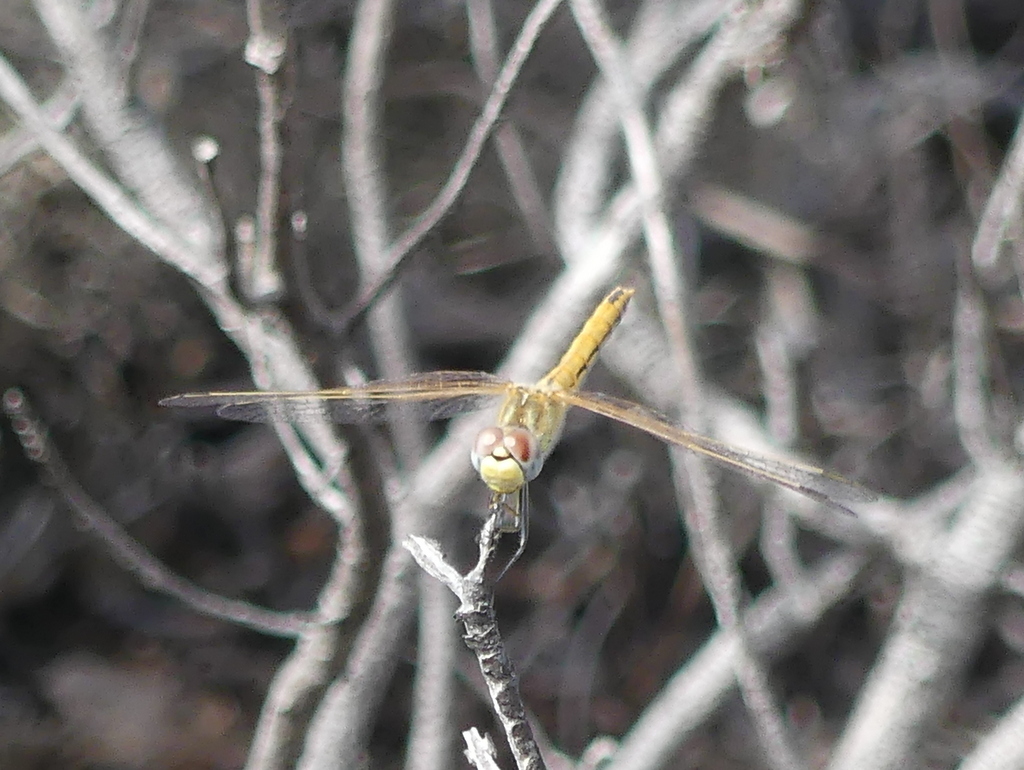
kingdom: Animalia
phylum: Arthropoda
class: Insecta
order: Odonata
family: Libellulidae
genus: Sympetrum
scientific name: Sympetrum fonscolombii
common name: Red-veined darter
